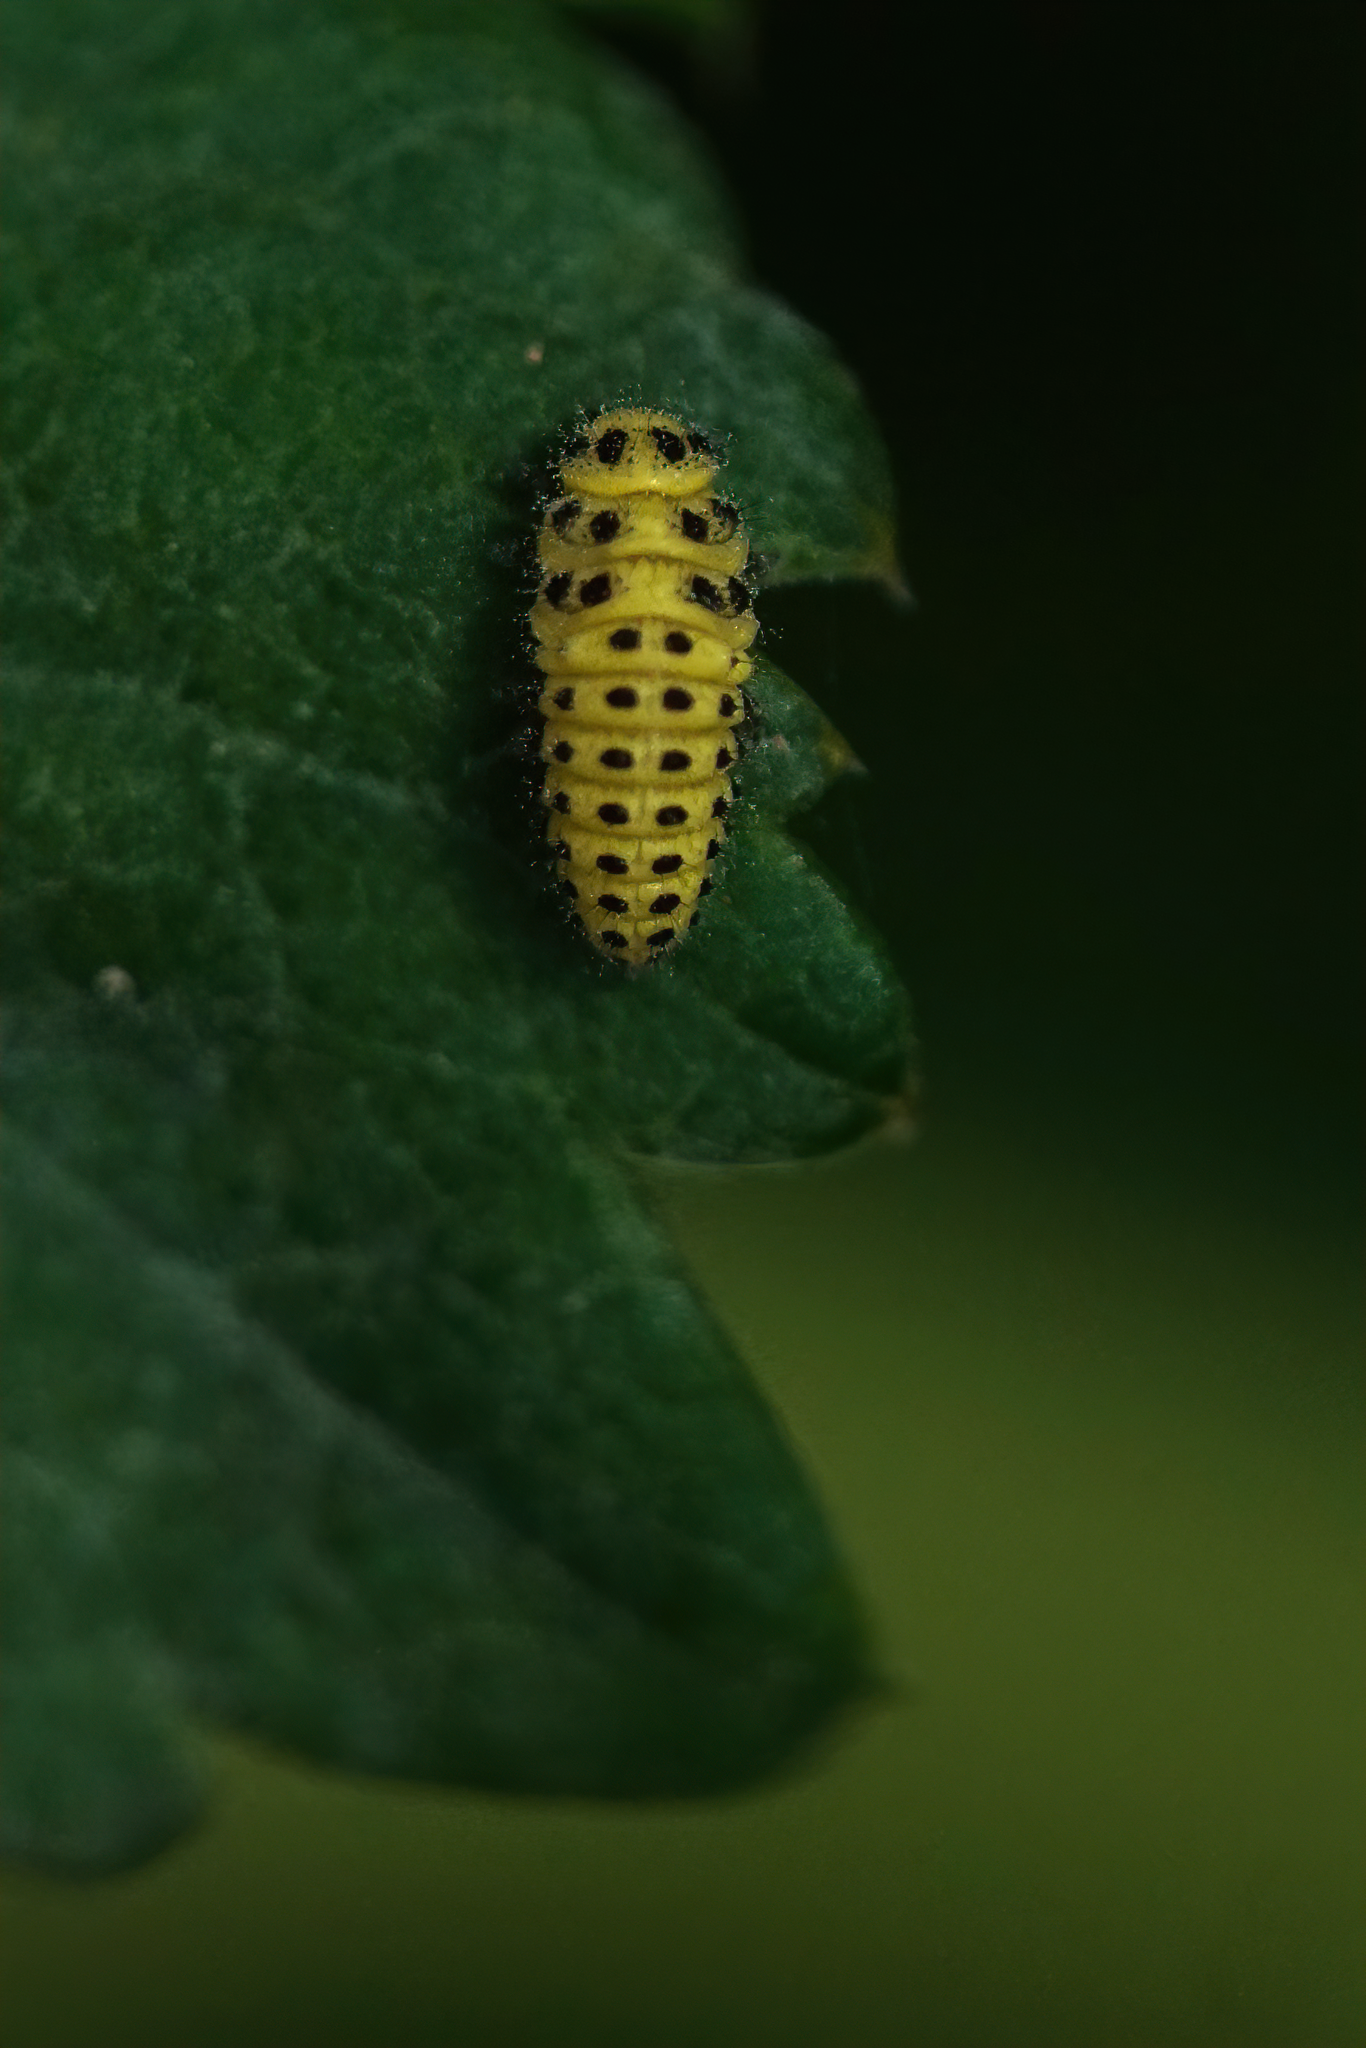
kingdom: Animalia
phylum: Arthropoda
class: Insecta
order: Coleoptera
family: Coccinellidae
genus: Psyllobora
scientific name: Psyllobora vigintiduopunctata
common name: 22-spot ladybird
